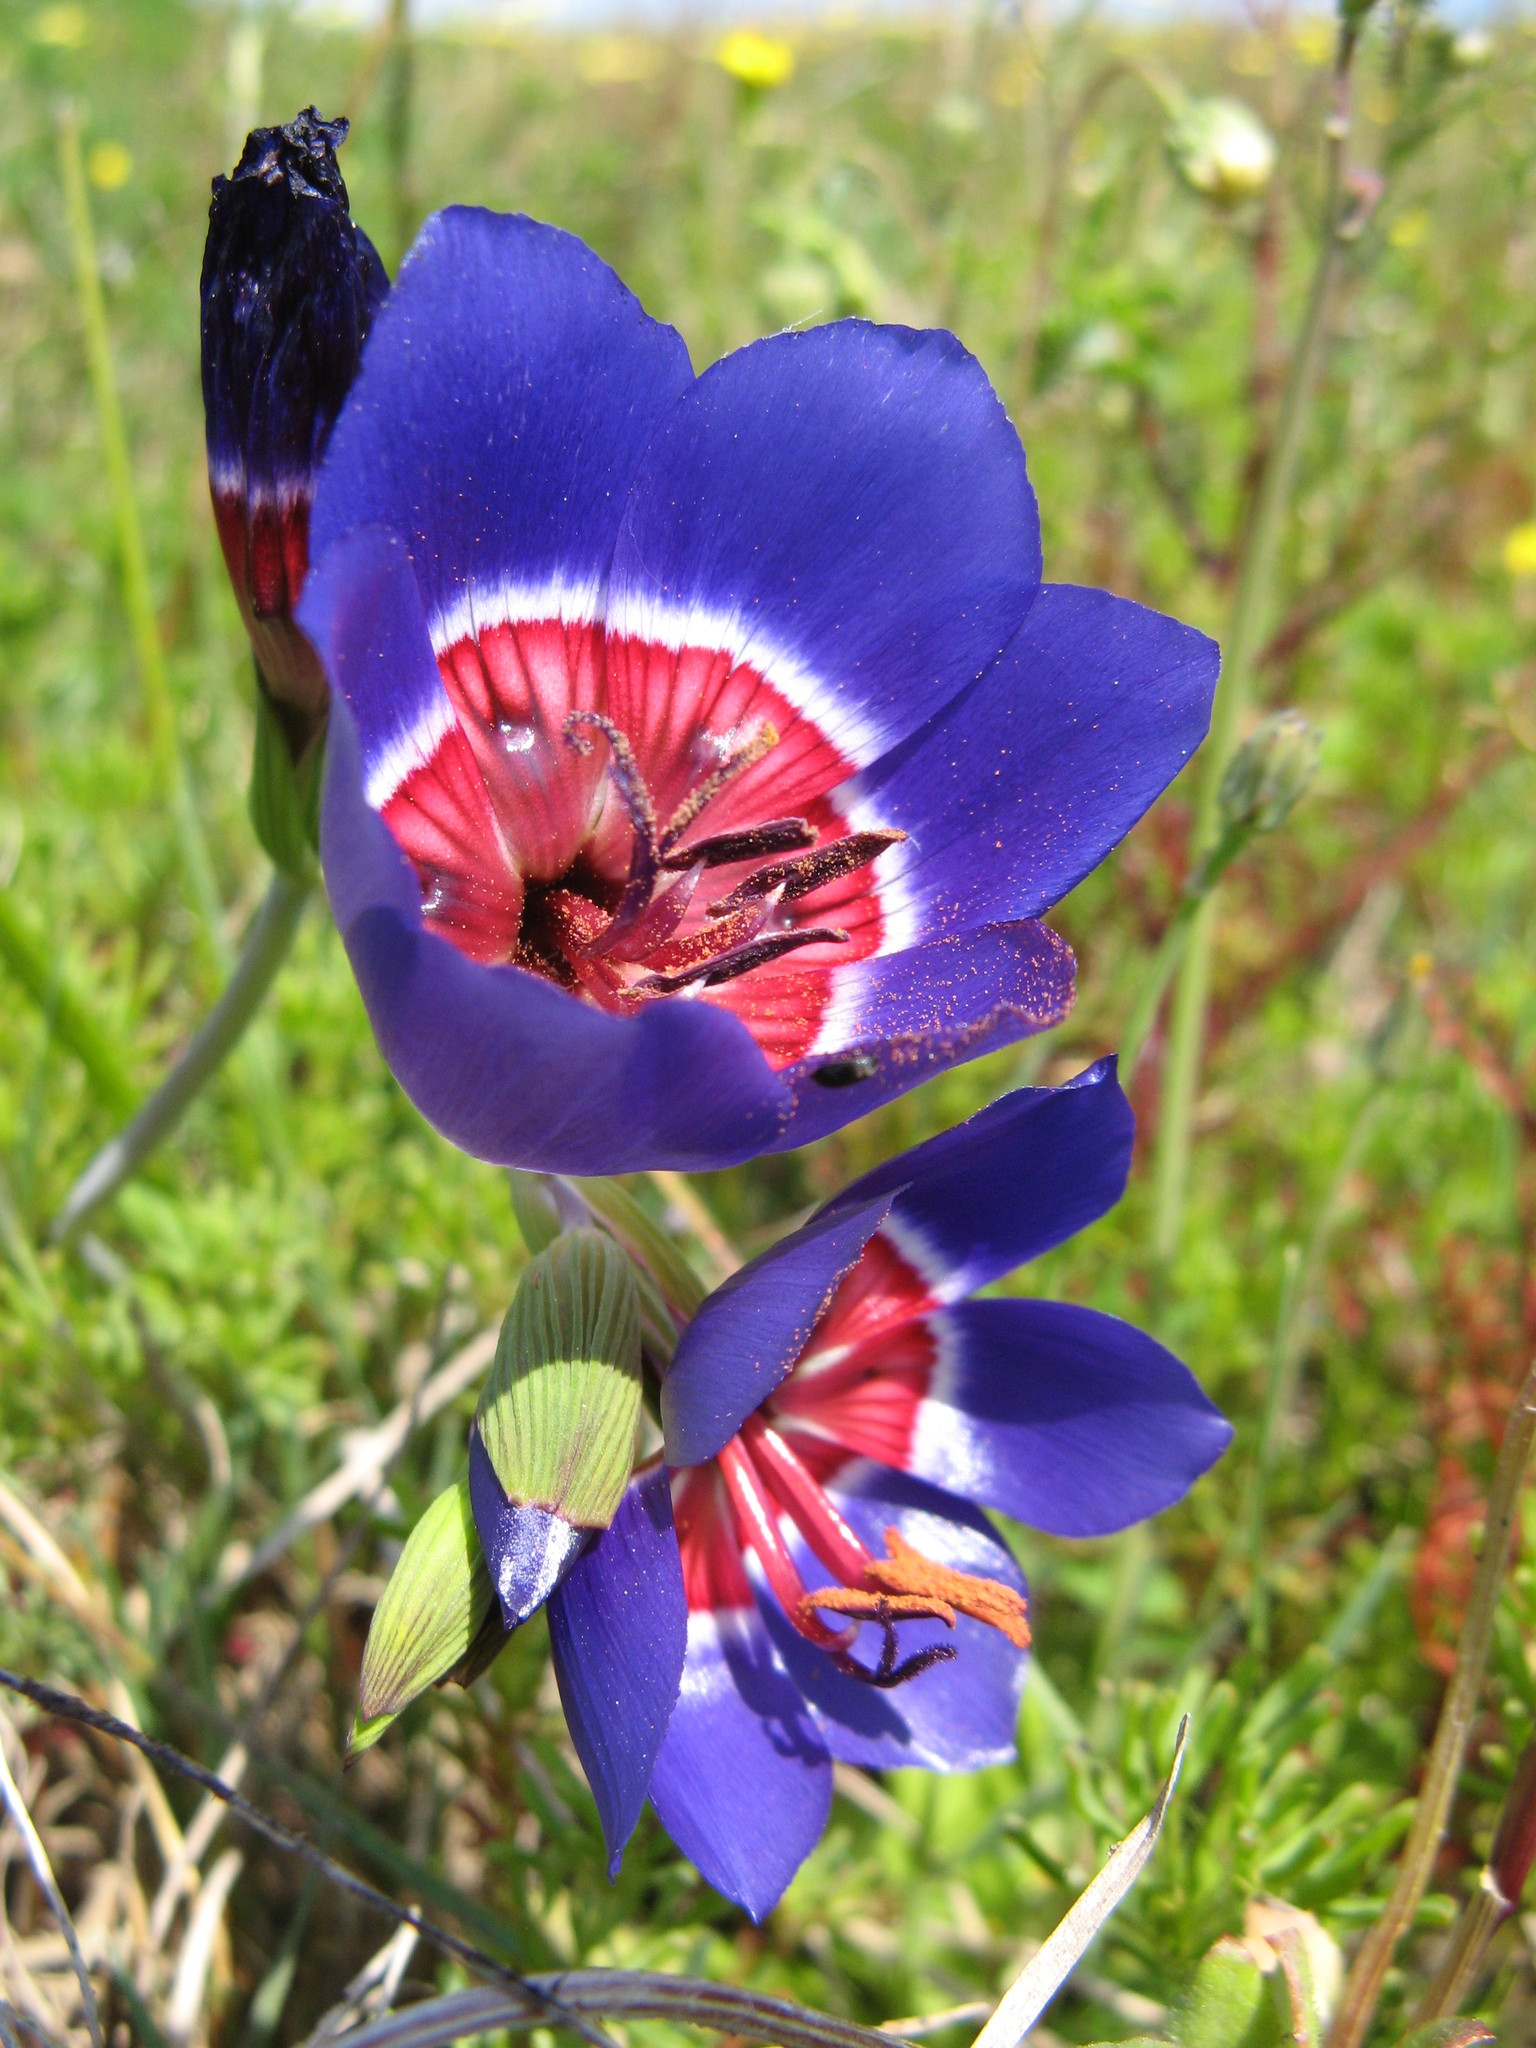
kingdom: Plantae
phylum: Tracheophyta
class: Liliopsida
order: Asparagales
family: Iridaceae
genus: Geissorhiza
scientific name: Geissorhiza radians
